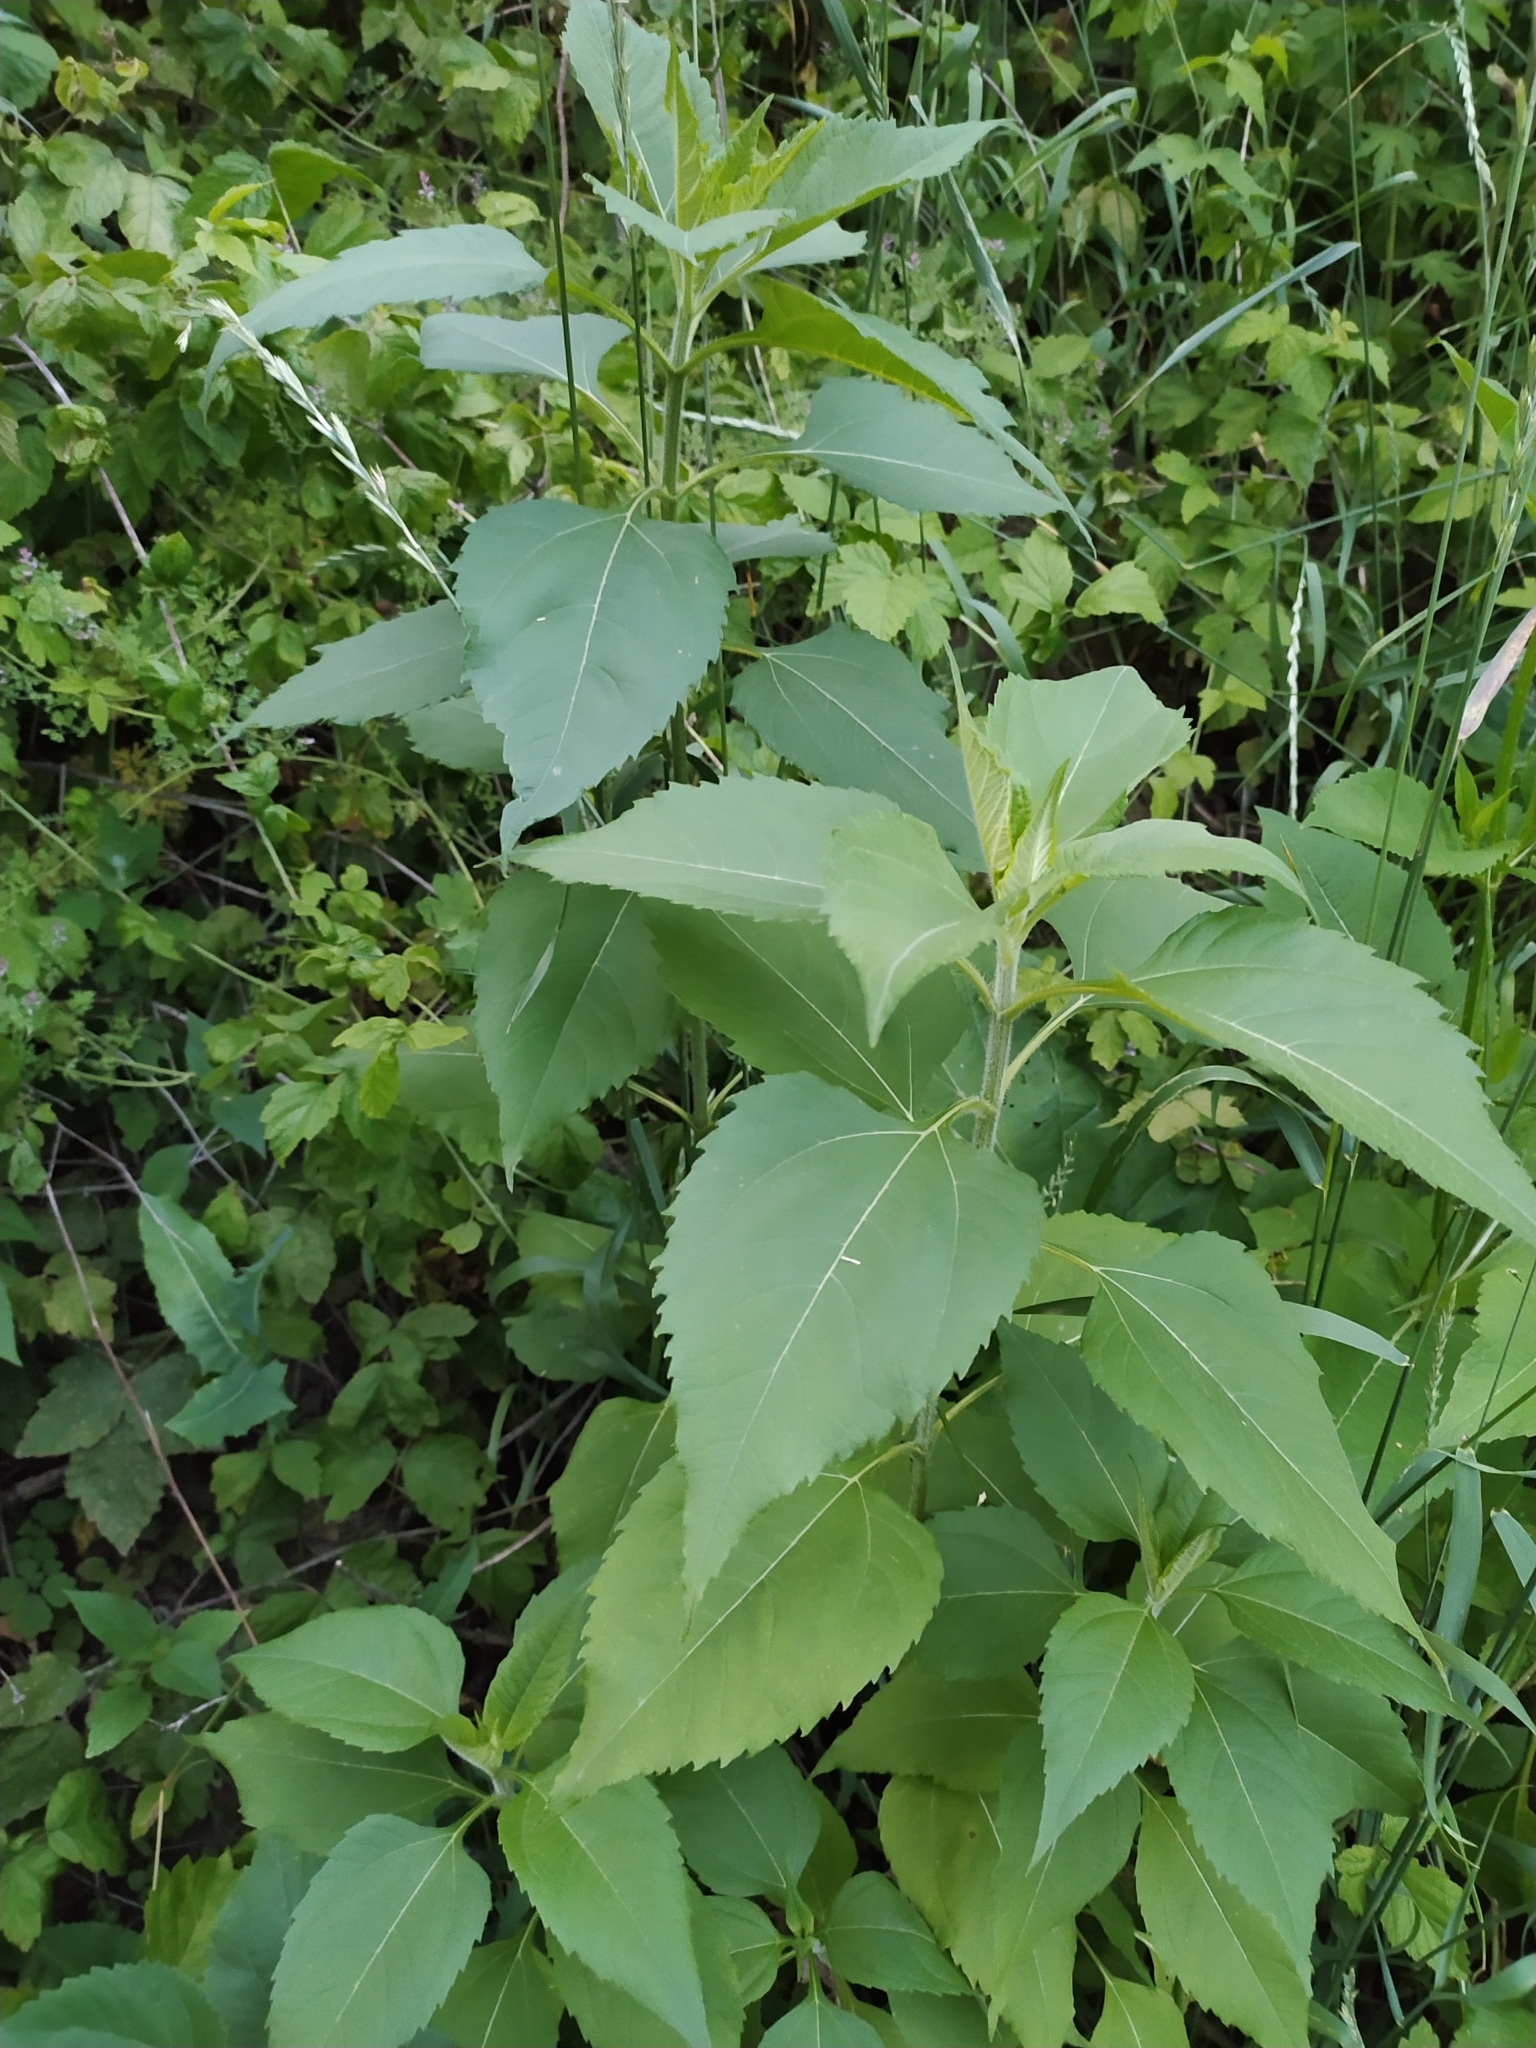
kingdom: Plantae
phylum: Tracheophyta
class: Magnoliopsida
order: Asterales
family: Asteraceae
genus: Helianthus
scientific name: Helianthus tuberosus
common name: Jerusalem artichoke
